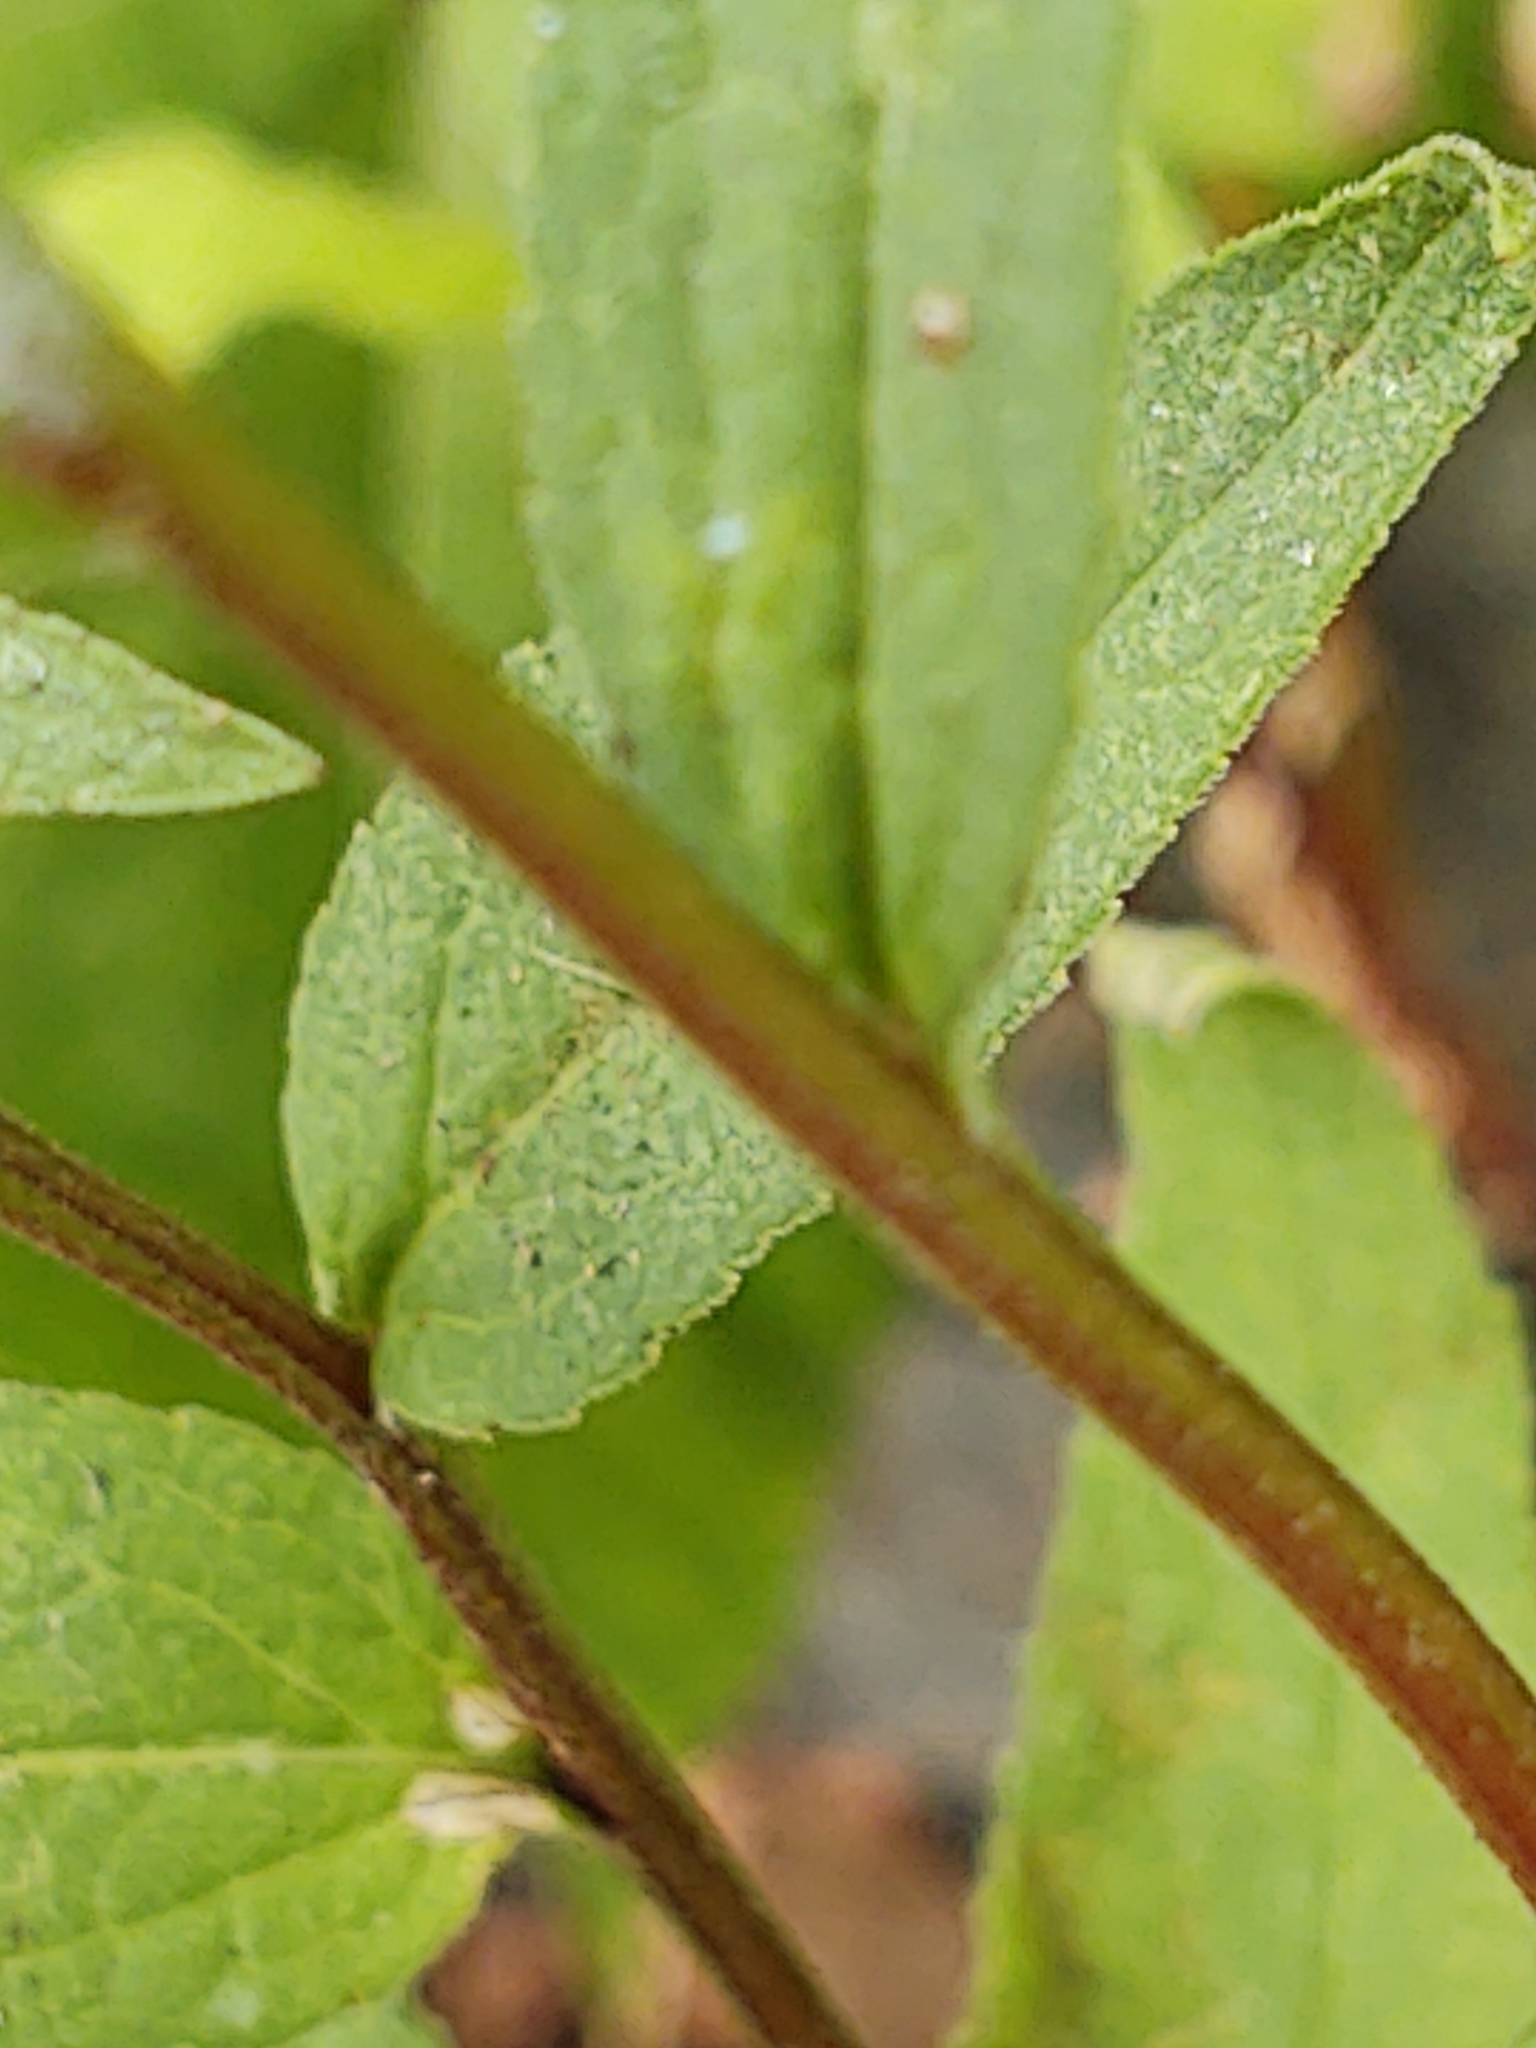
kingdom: Plantae
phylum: Tracheophyta
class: Magnoliopsida
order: Asterales
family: Campanulaceae
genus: Campanula
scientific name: Campanula rapunculoides
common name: Creeping bellflower
